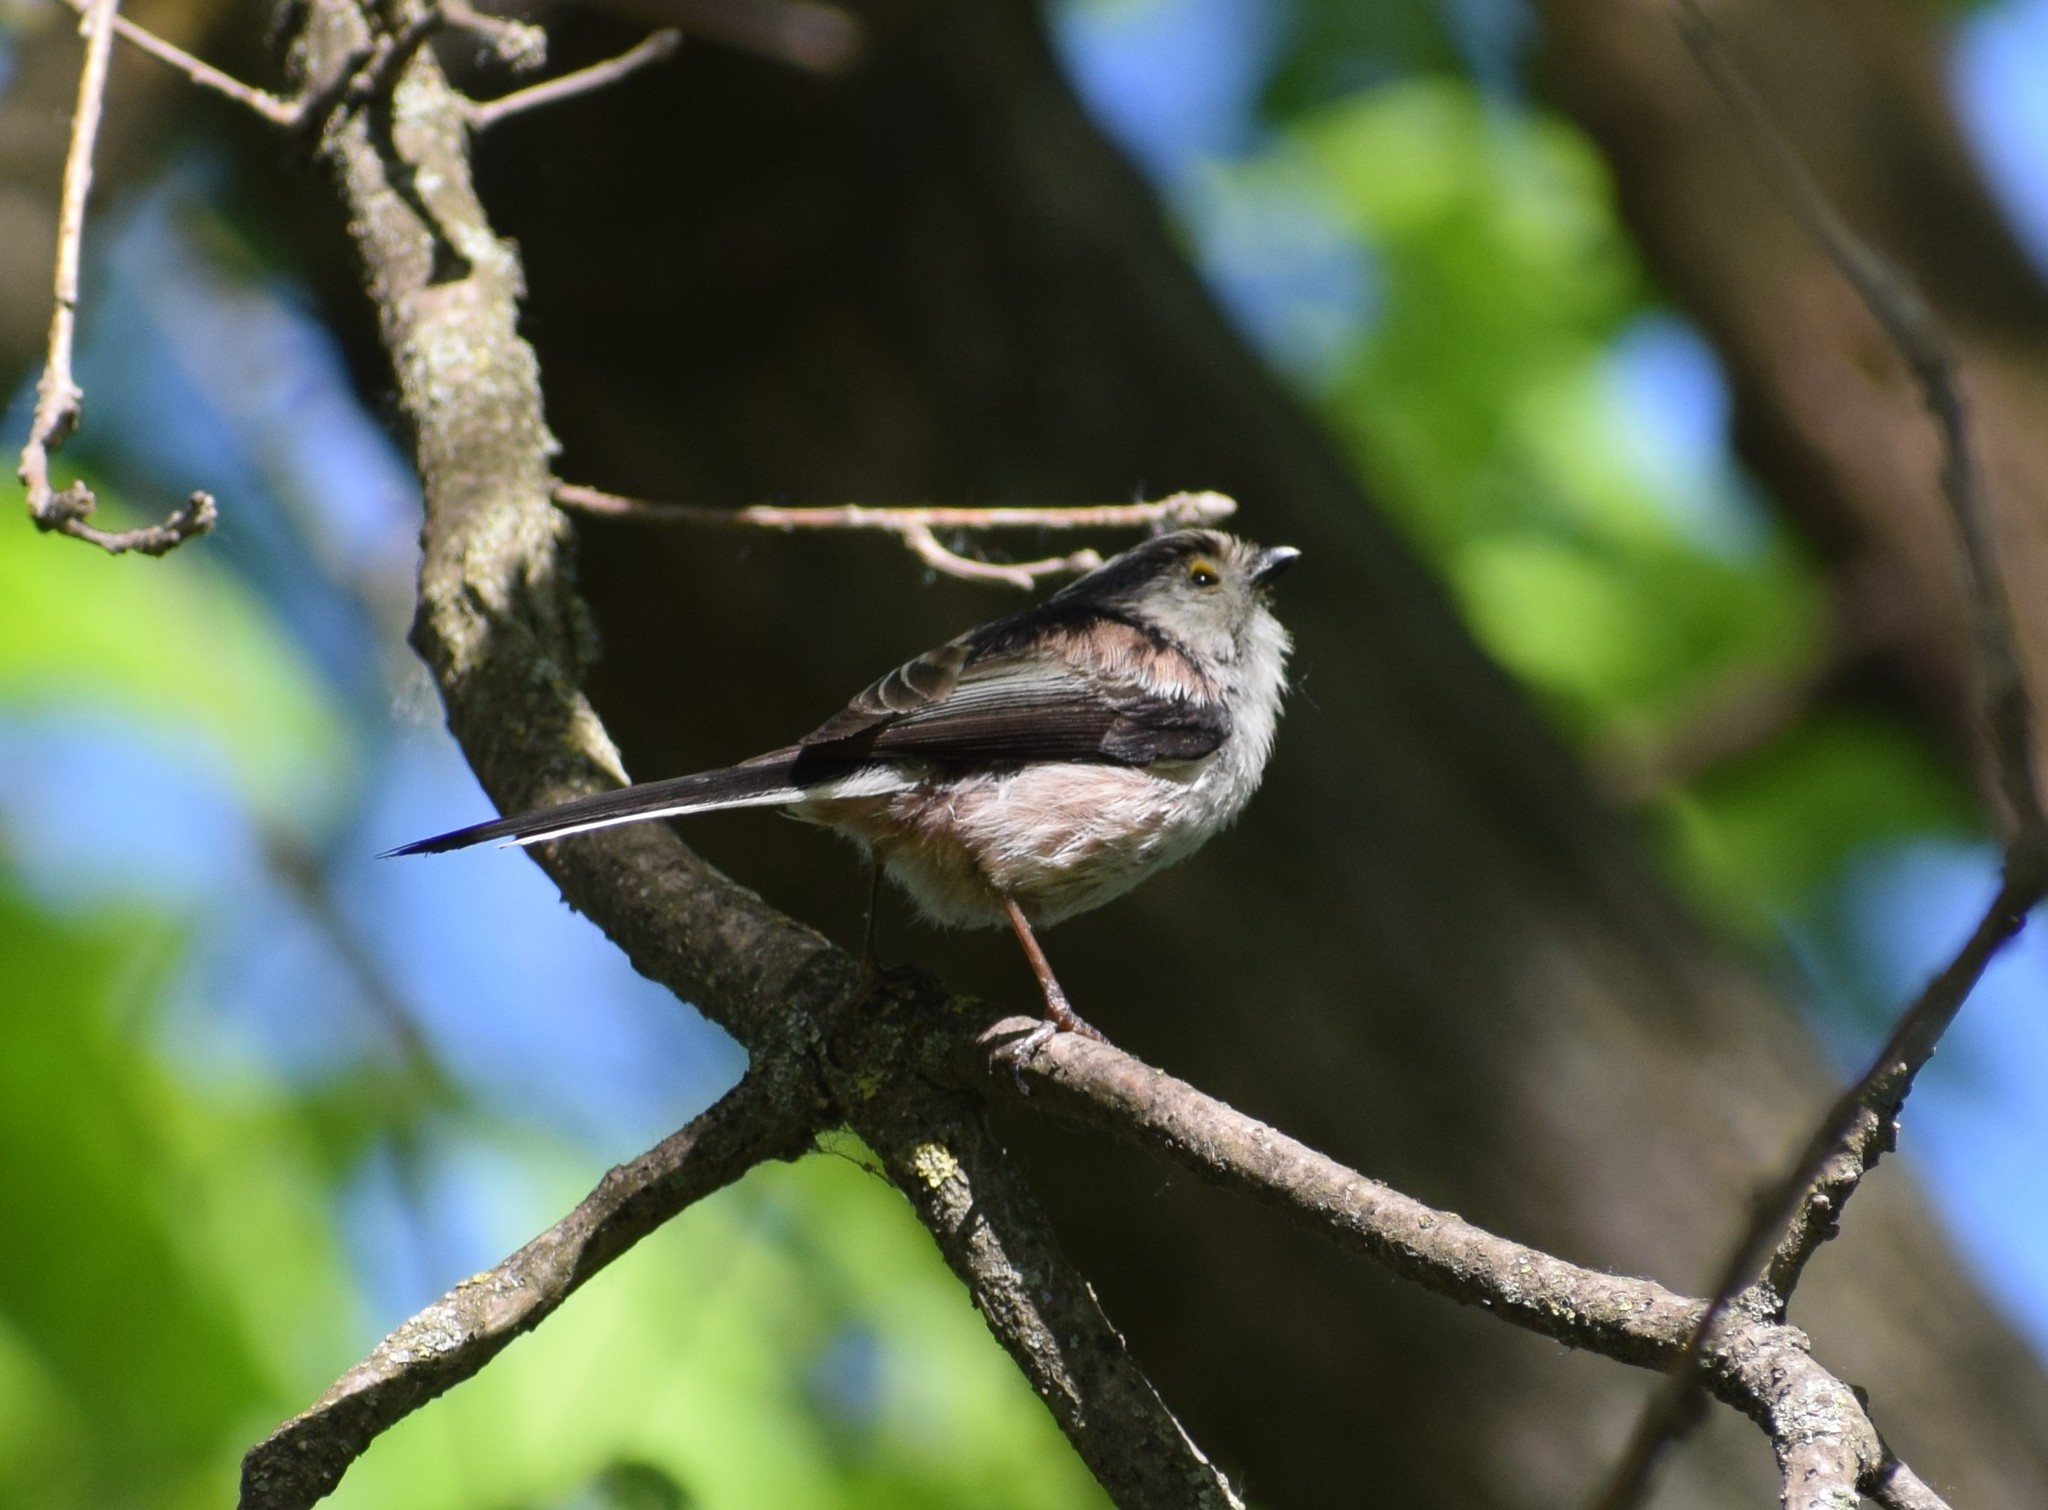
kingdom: Animalia
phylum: Chordata
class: Aves
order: Passeriformes
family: Aegithalidae
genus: Aegithalos
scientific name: Aegithalos caudatus
